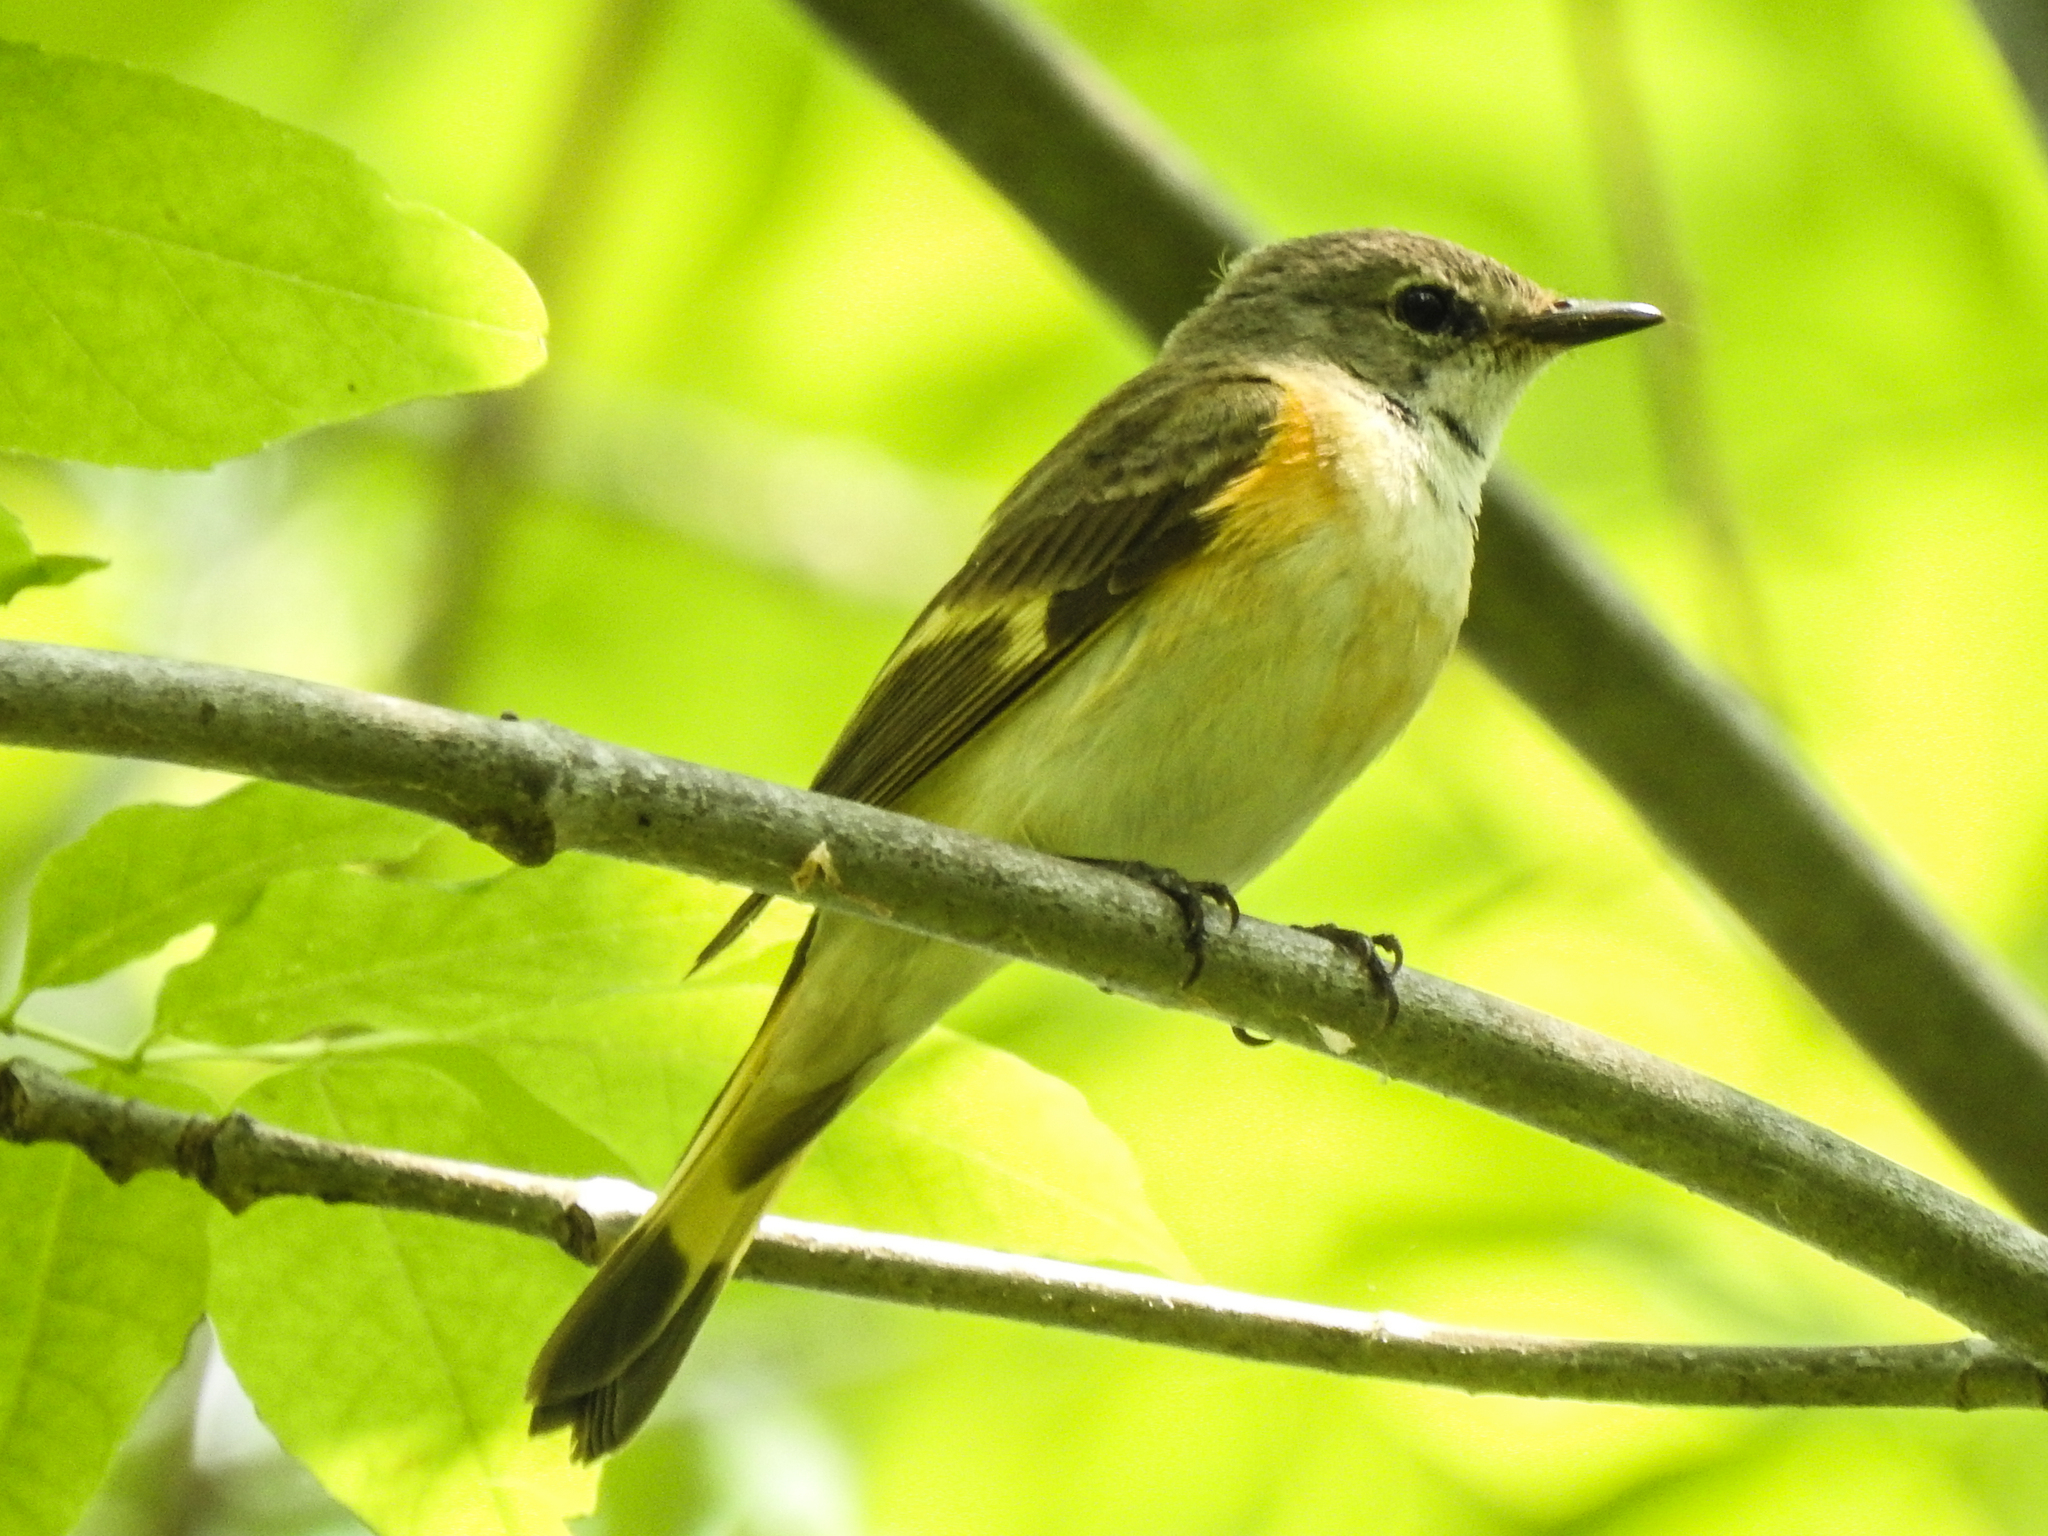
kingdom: Animalia
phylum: Chordata
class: Aves
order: Passeriformes
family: Parulidae
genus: Setophaga
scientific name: Setophaga ruticilla
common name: American redstart
